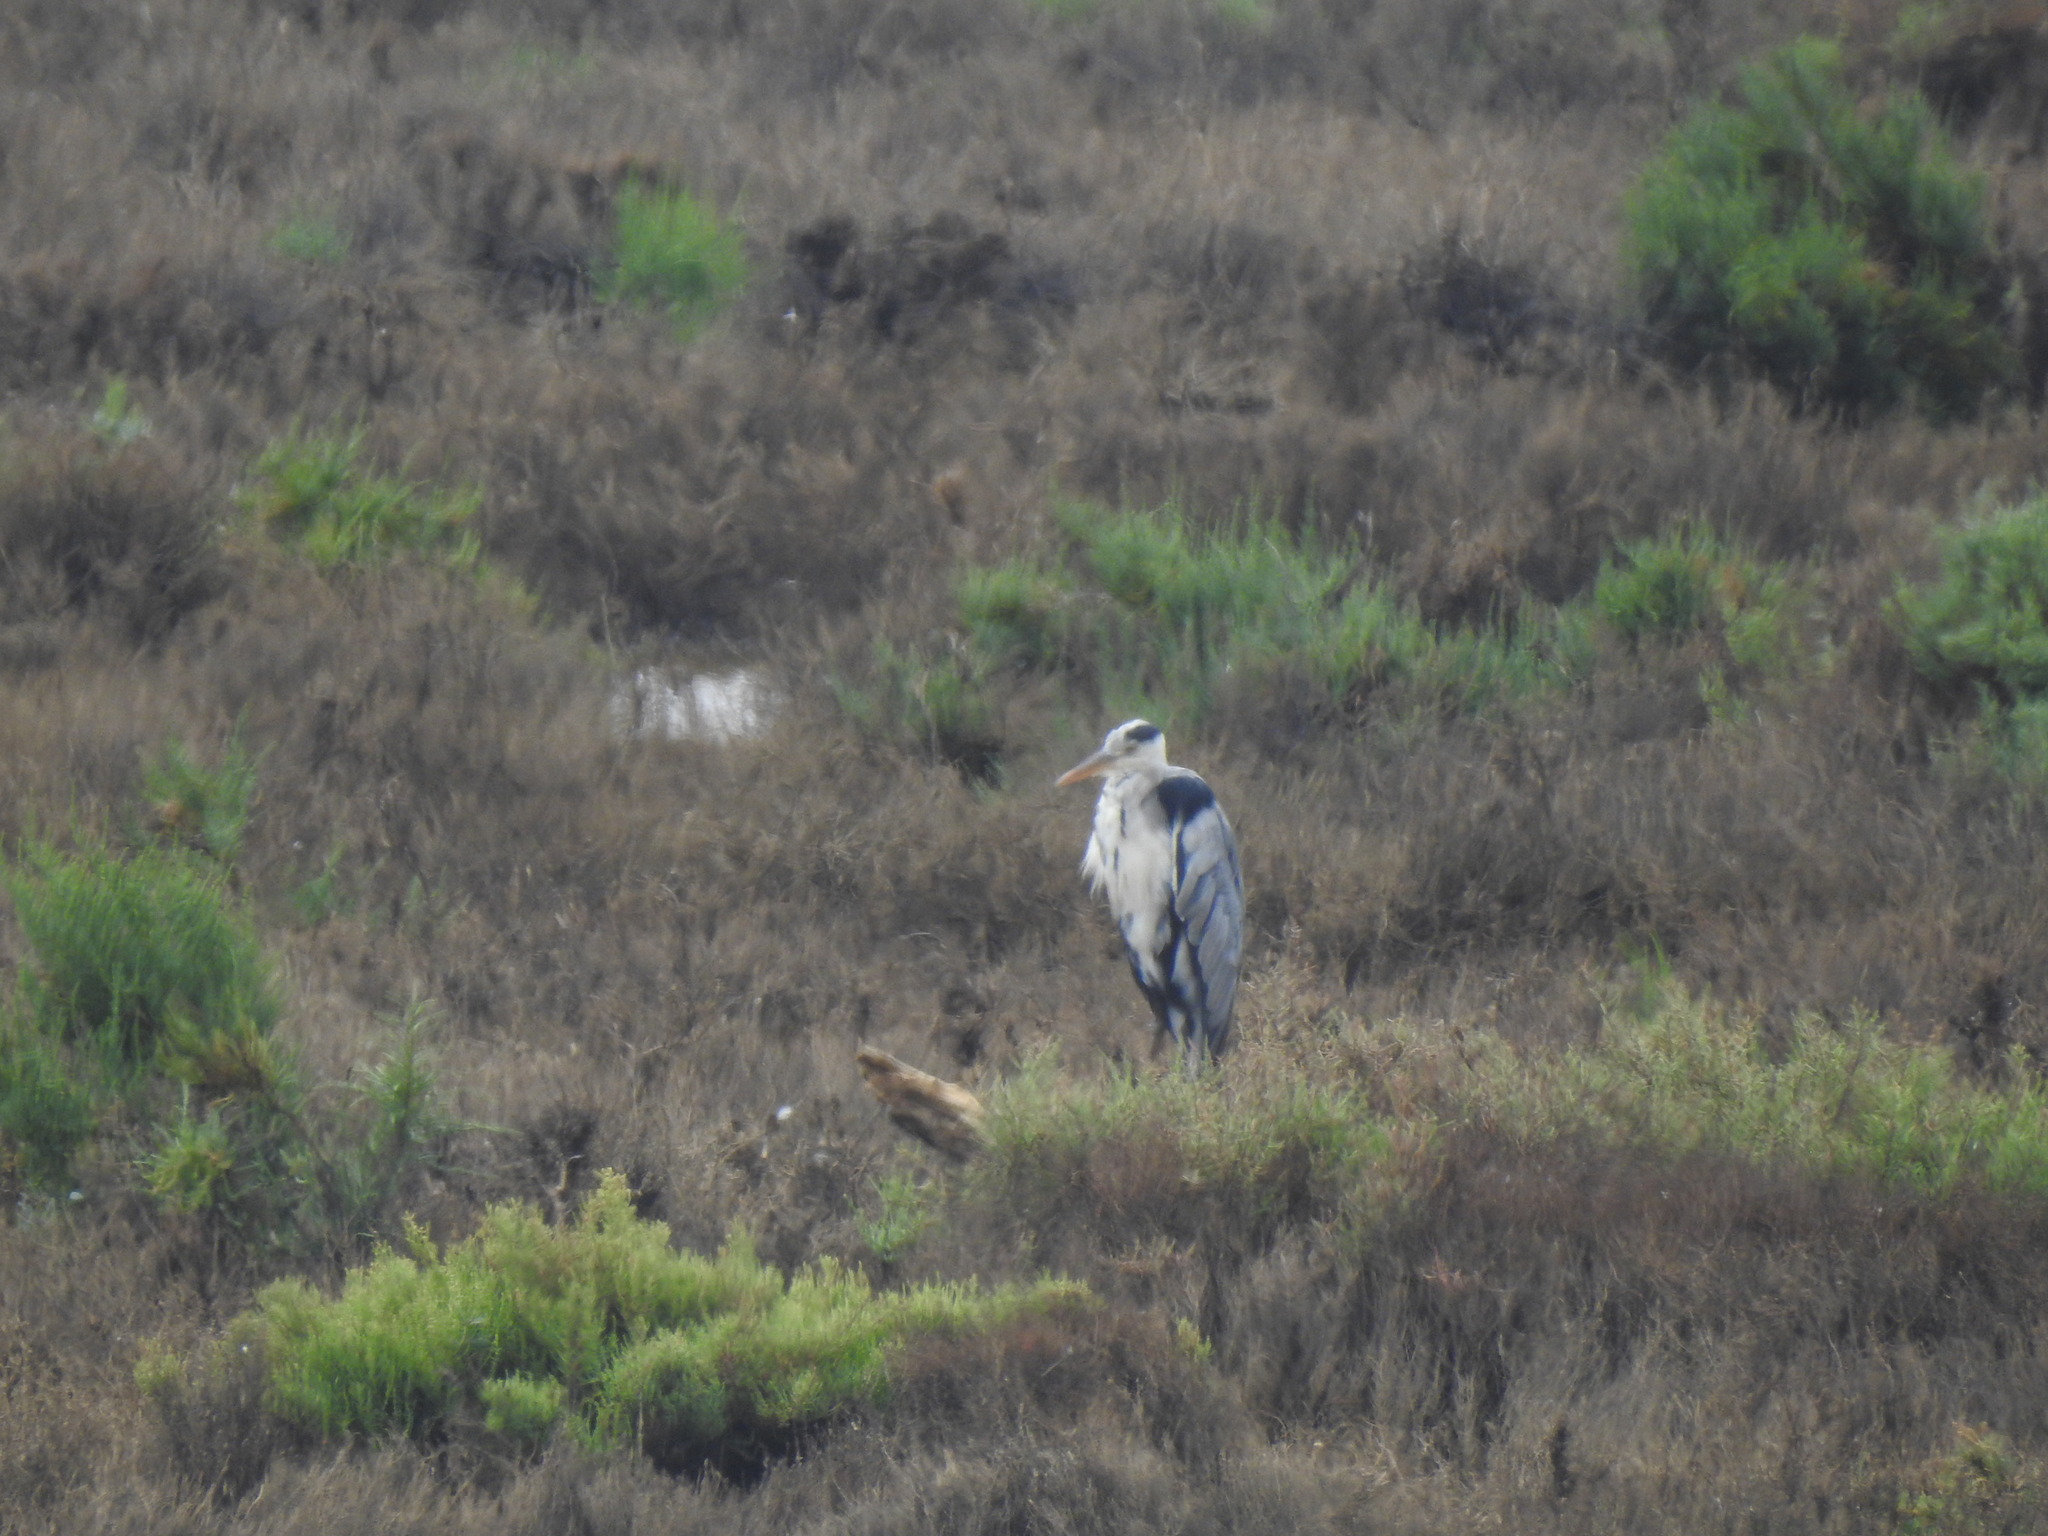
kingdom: Animalia
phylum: Chordata
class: Aves
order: Pelecaniformes
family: Ardeidae
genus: Ardea
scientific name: Ardea cinerea
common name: Grey heron
